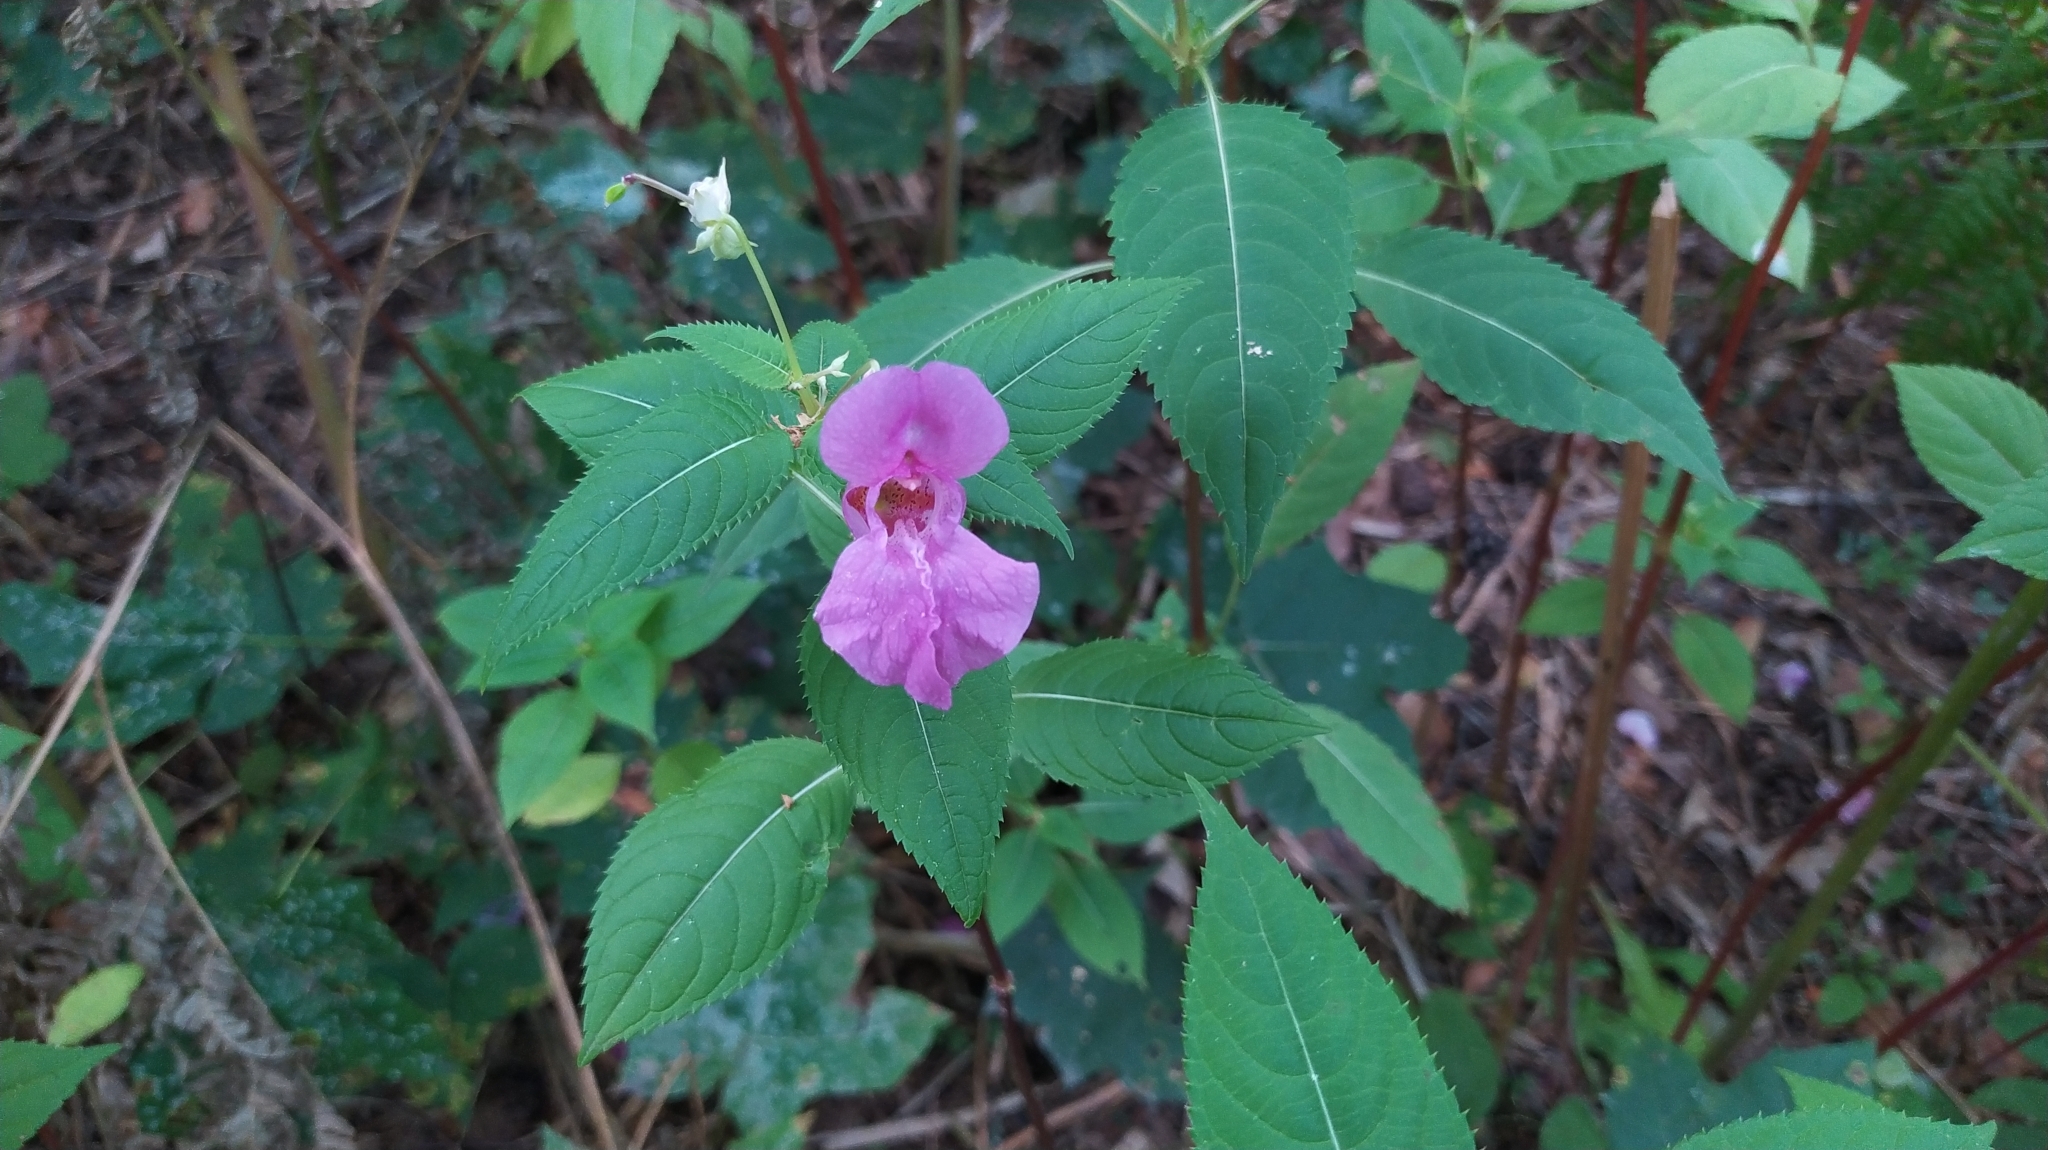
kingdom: Plantae
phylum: Tracheophyta
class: Magnoliopsida
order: Ericales
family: Balsaminaceae
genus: Impatiens
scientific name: Impatiens glandulifera
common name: Himalayan balsam
